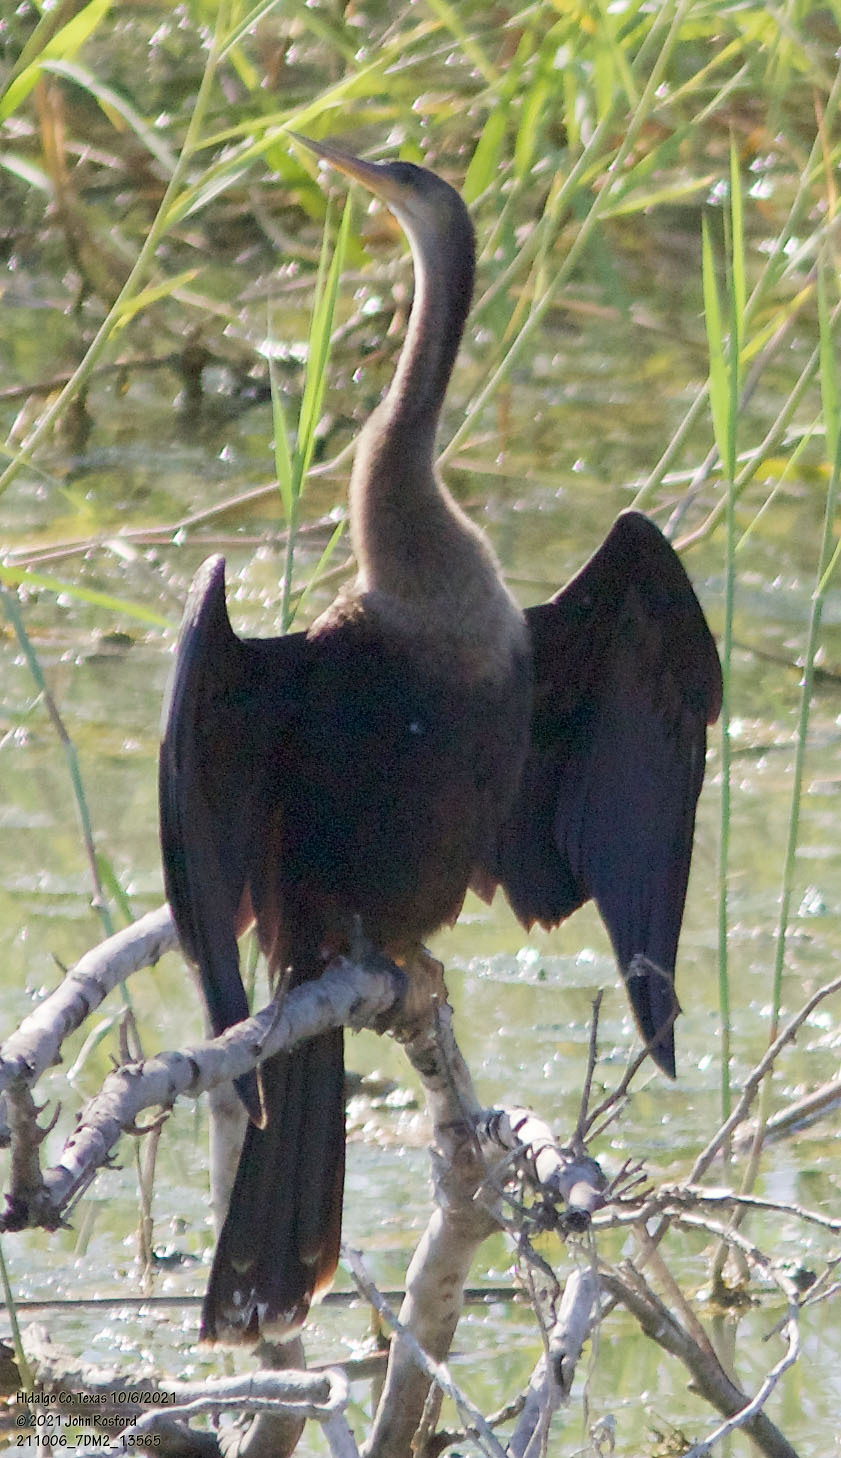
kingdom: Animalia
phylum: Chordata
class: Aves
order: Suliformes
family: Anhingidae
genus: Anhinga
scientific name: Anhinga anhinga
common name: Anhinga
